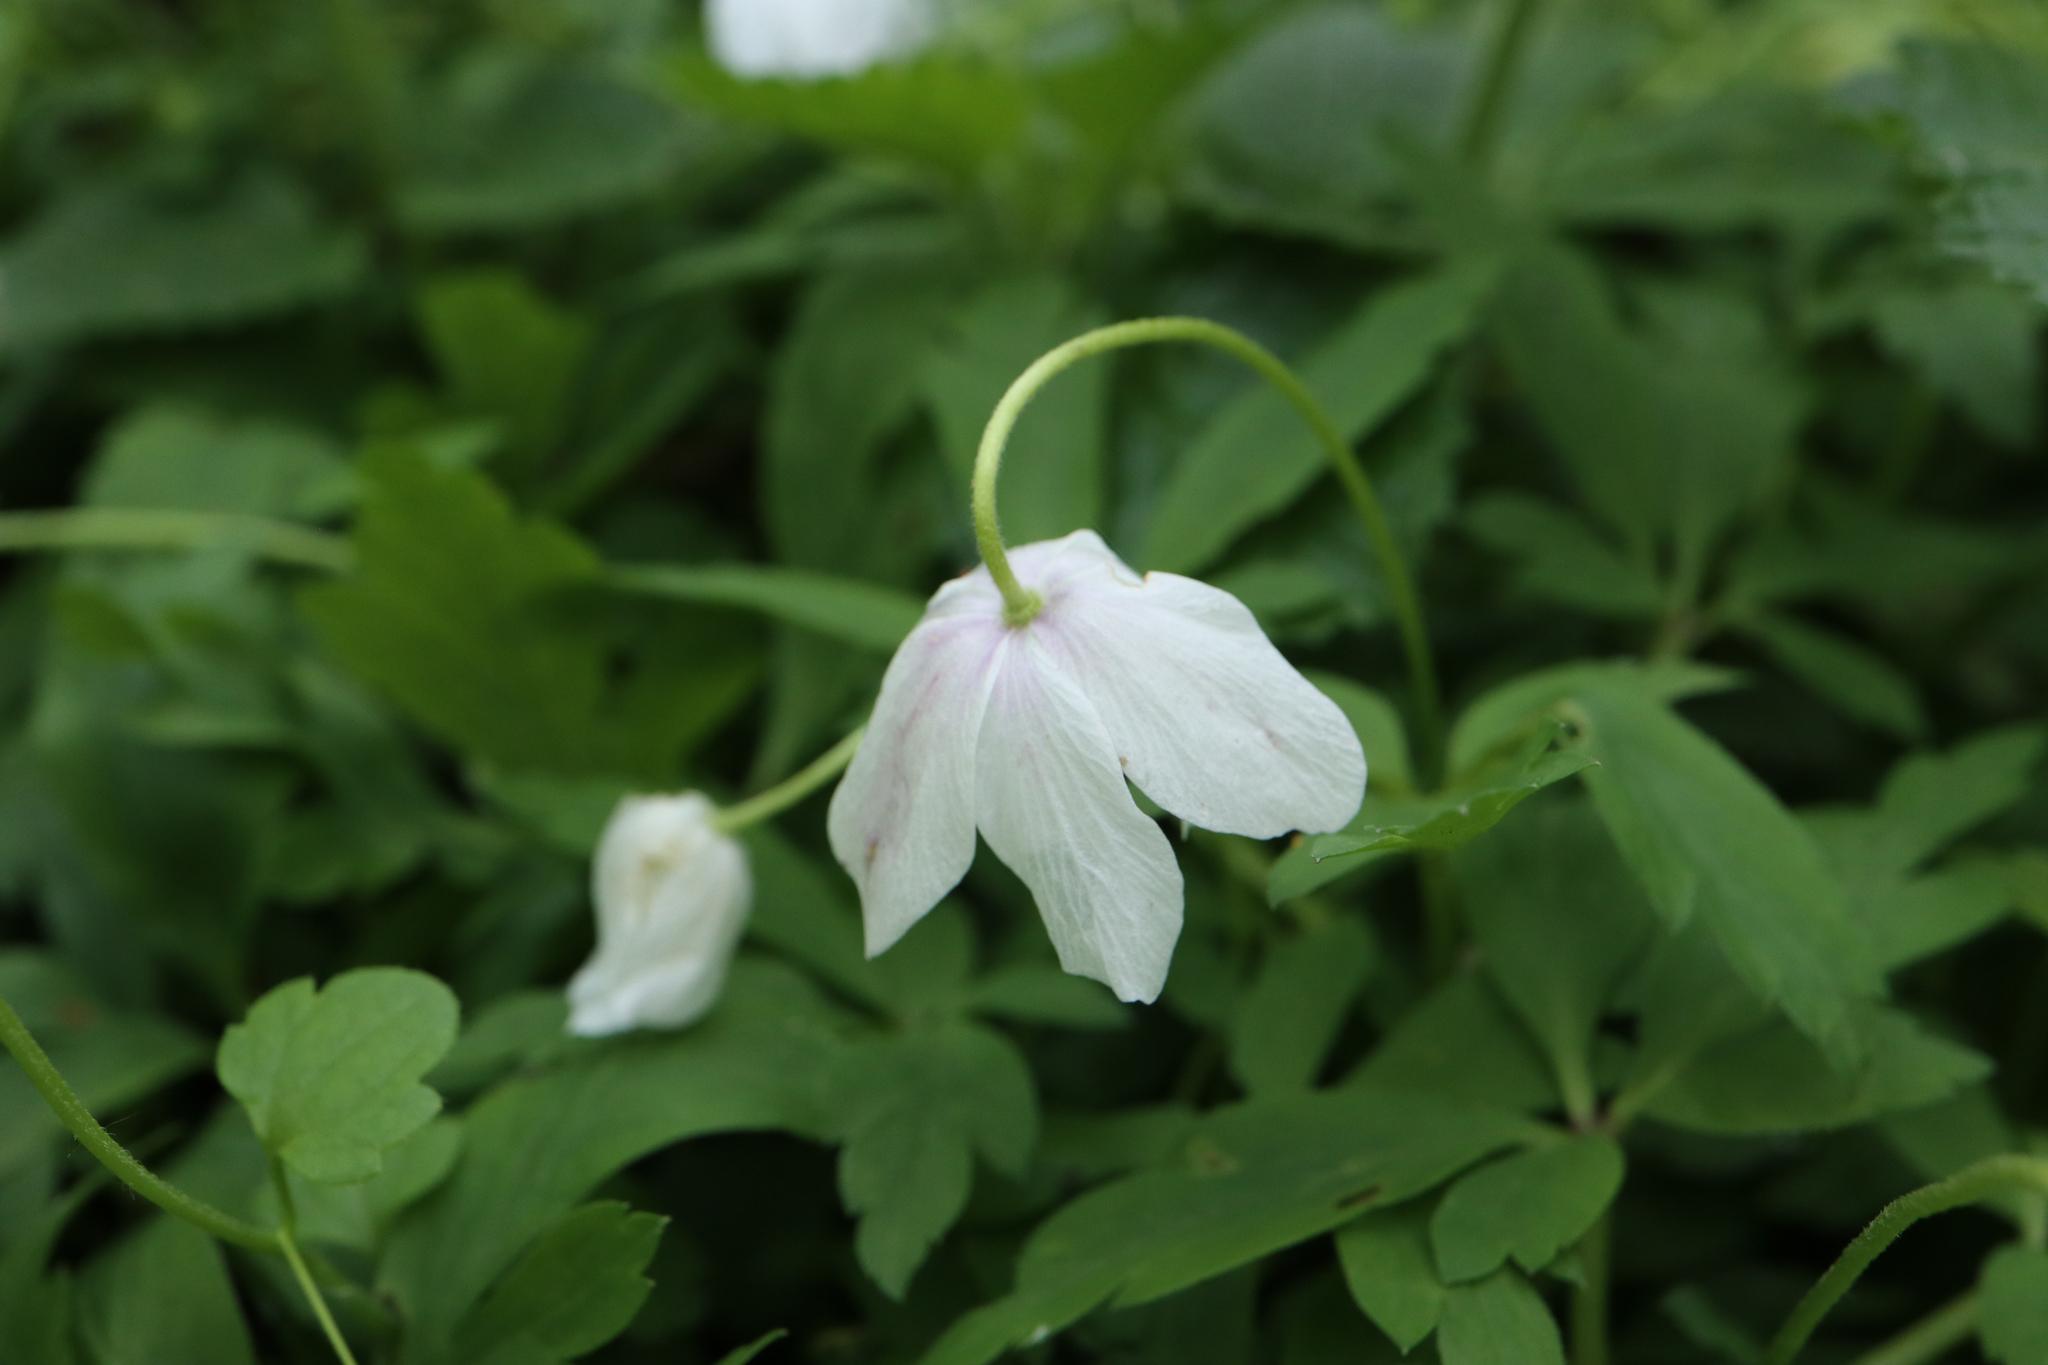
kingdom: Plantae
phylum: Tracheophyta
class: Magnoliopsida
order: Ranunculales
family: Ranunculaceae
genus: Anemone
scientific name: Anemone nemorosa
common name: Wood anemone
